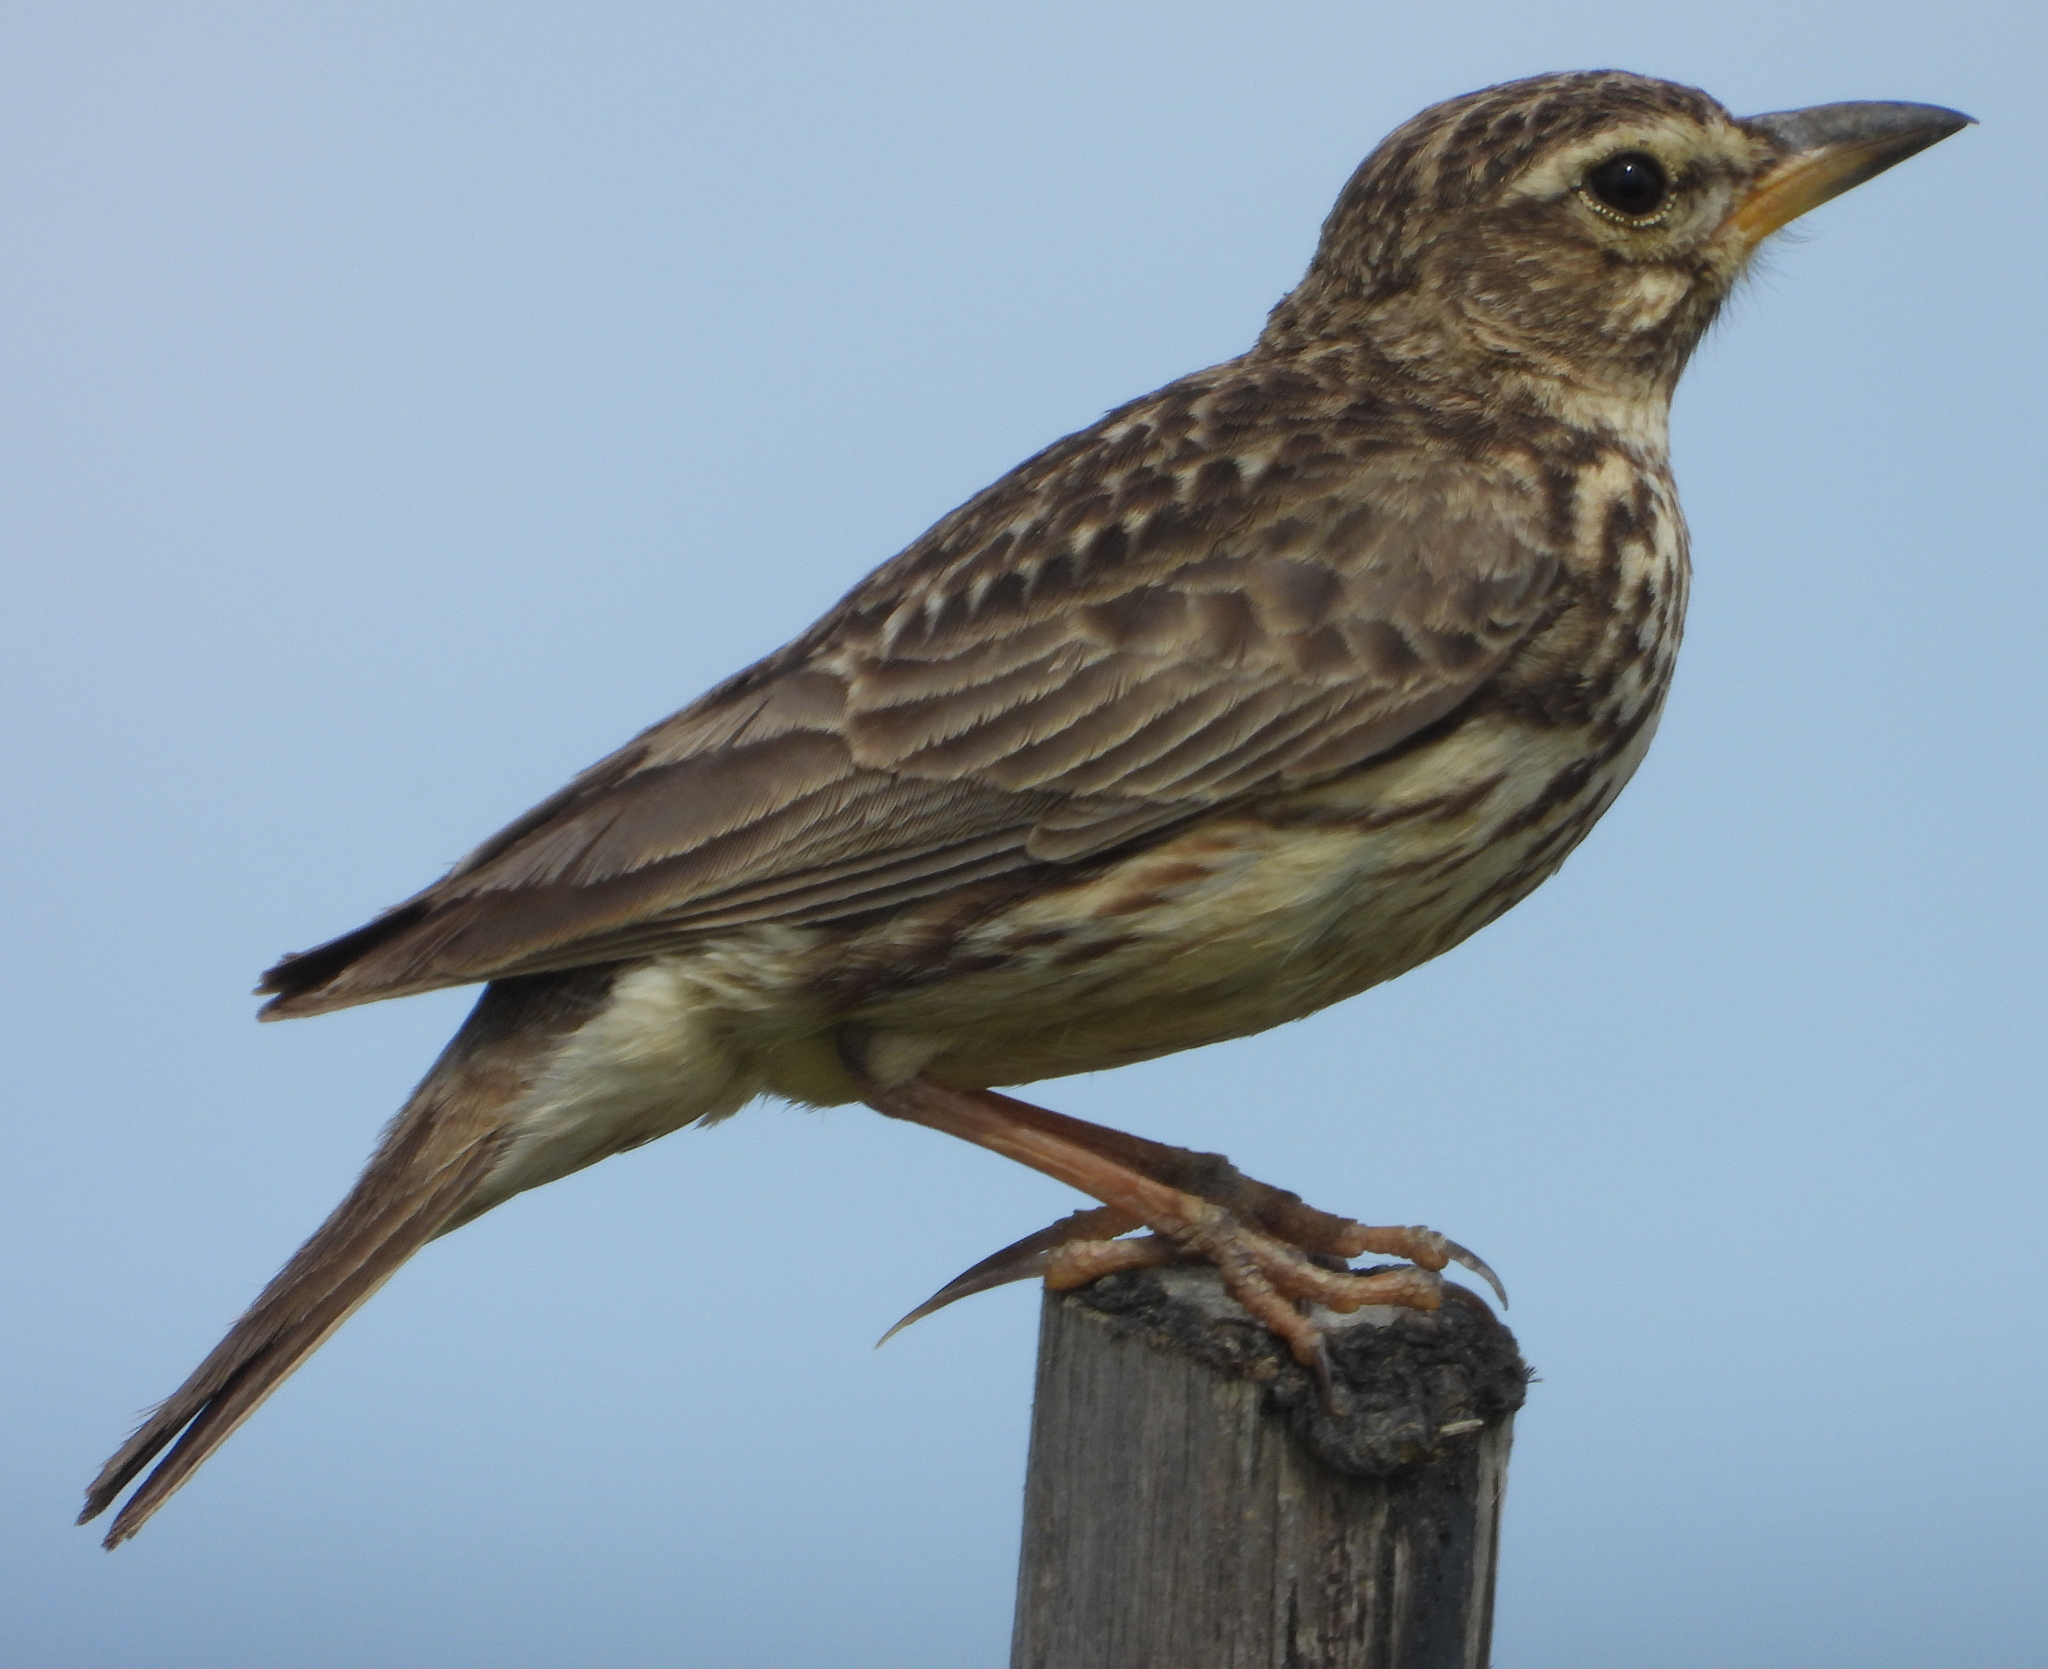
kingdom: Animalia
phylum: Chordata
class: Aves
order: Passeriformes
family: Alaudidae
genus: Galerida
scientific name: Galerida magnirostris
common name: Large-billed lark
